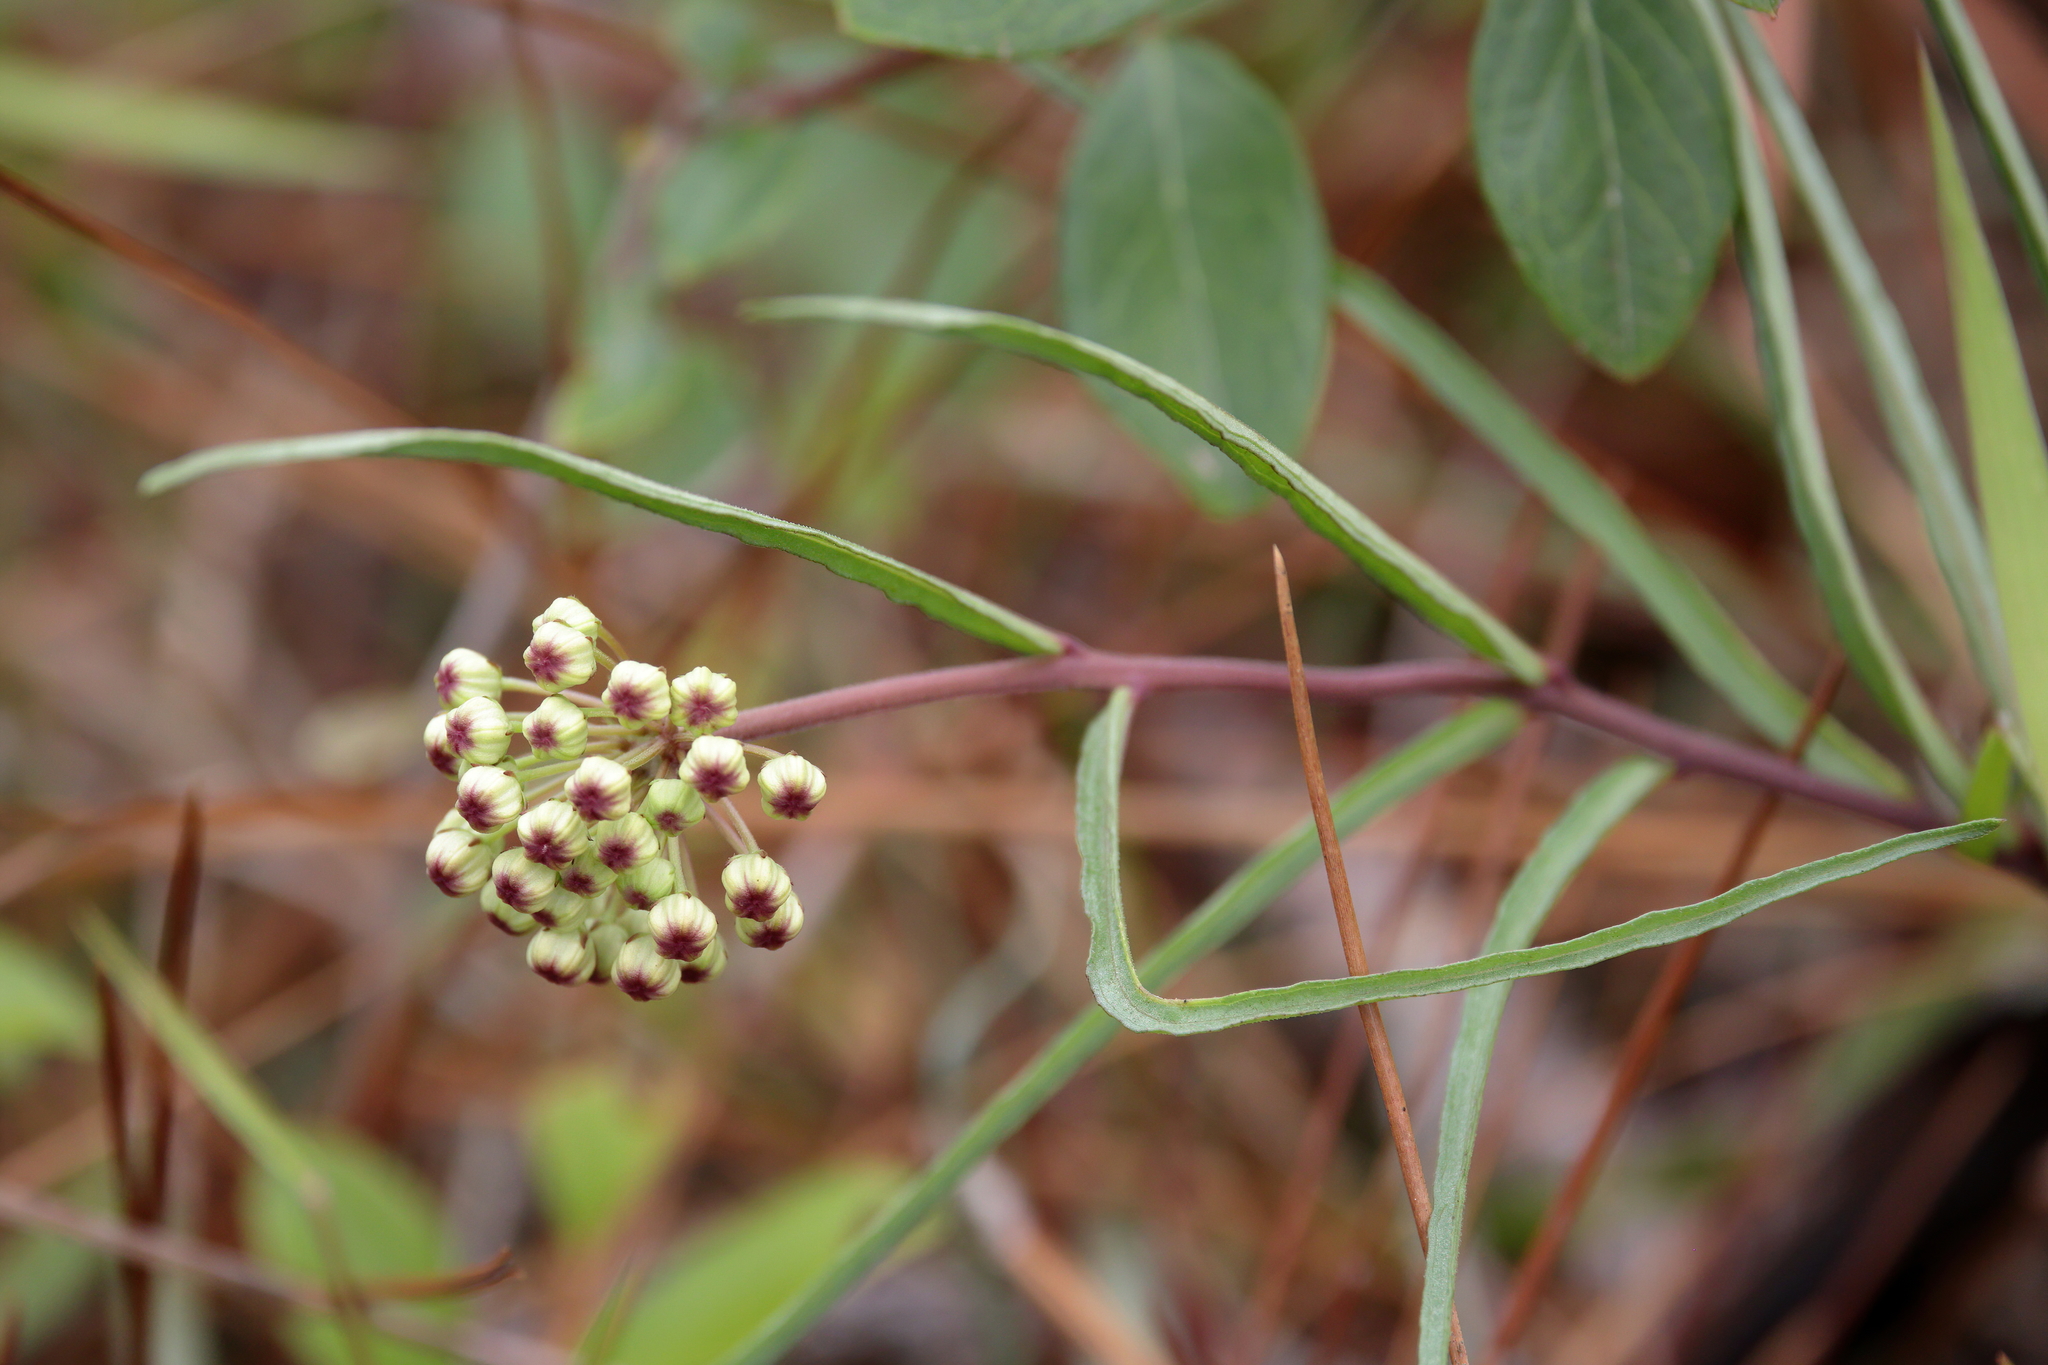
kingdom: Plantae
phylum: Tracheophyta
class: Magnoliopsida
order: Gentianales
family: Apocynaceae
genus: Asclepias
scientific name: Asclepias michauxii
